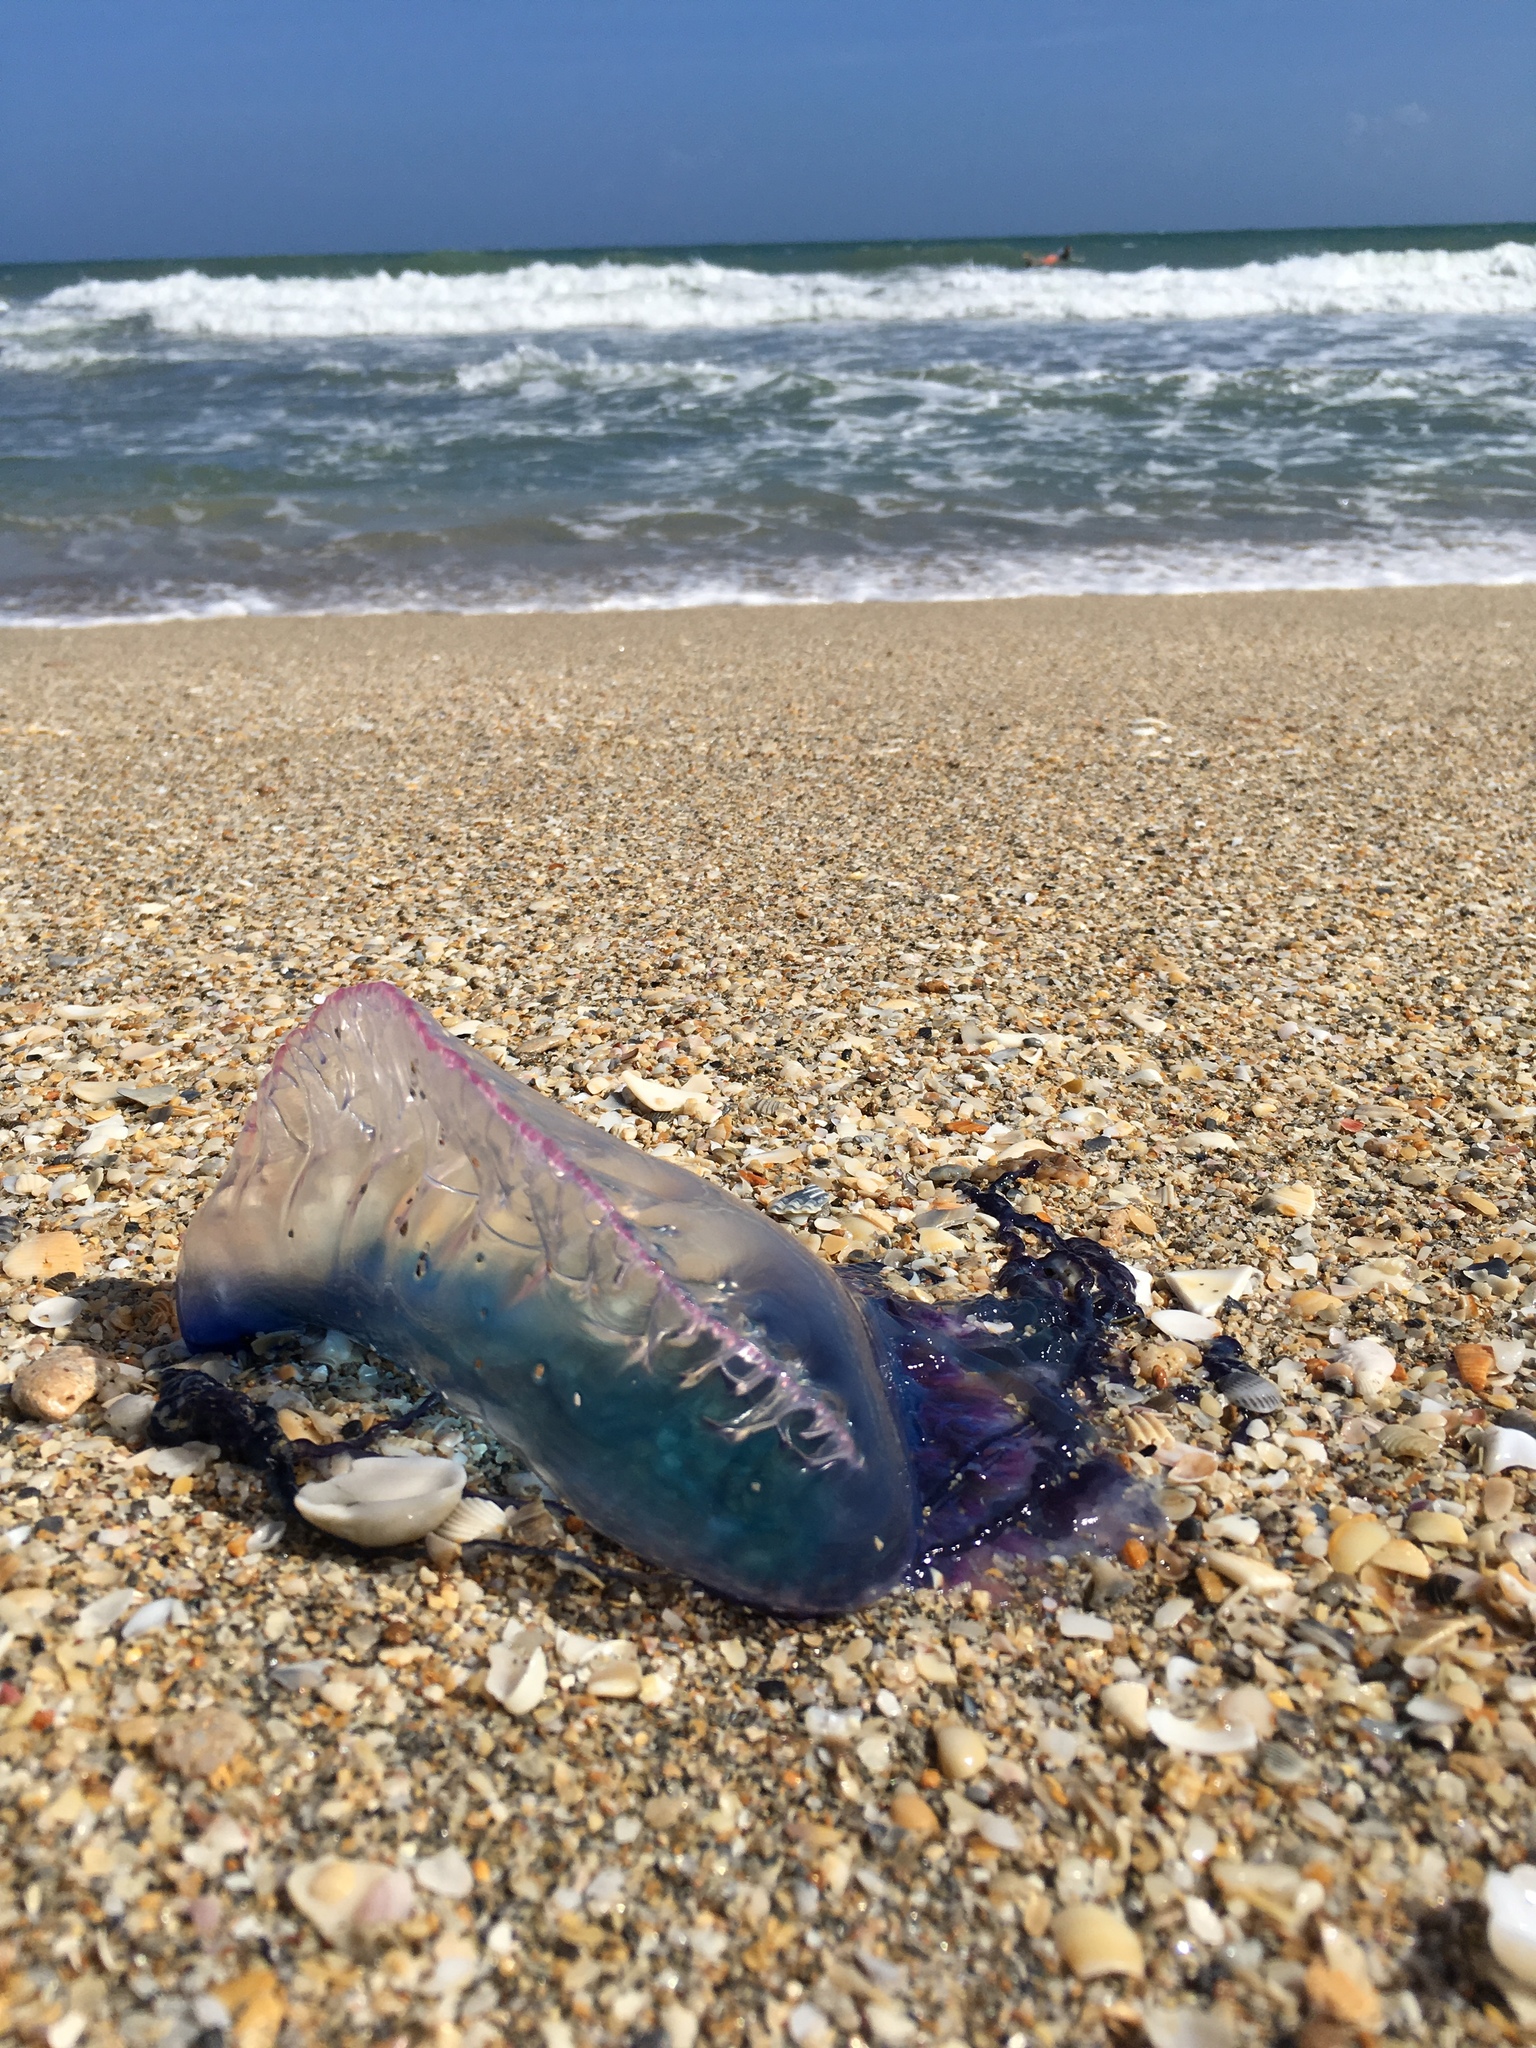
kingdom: Animalia
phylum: Cnidaria
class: Hydrozoa
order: Siphonophorae
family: Physaliidae
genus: Physalia
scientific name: Physalia physalis
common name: Portuguese man-of-war
